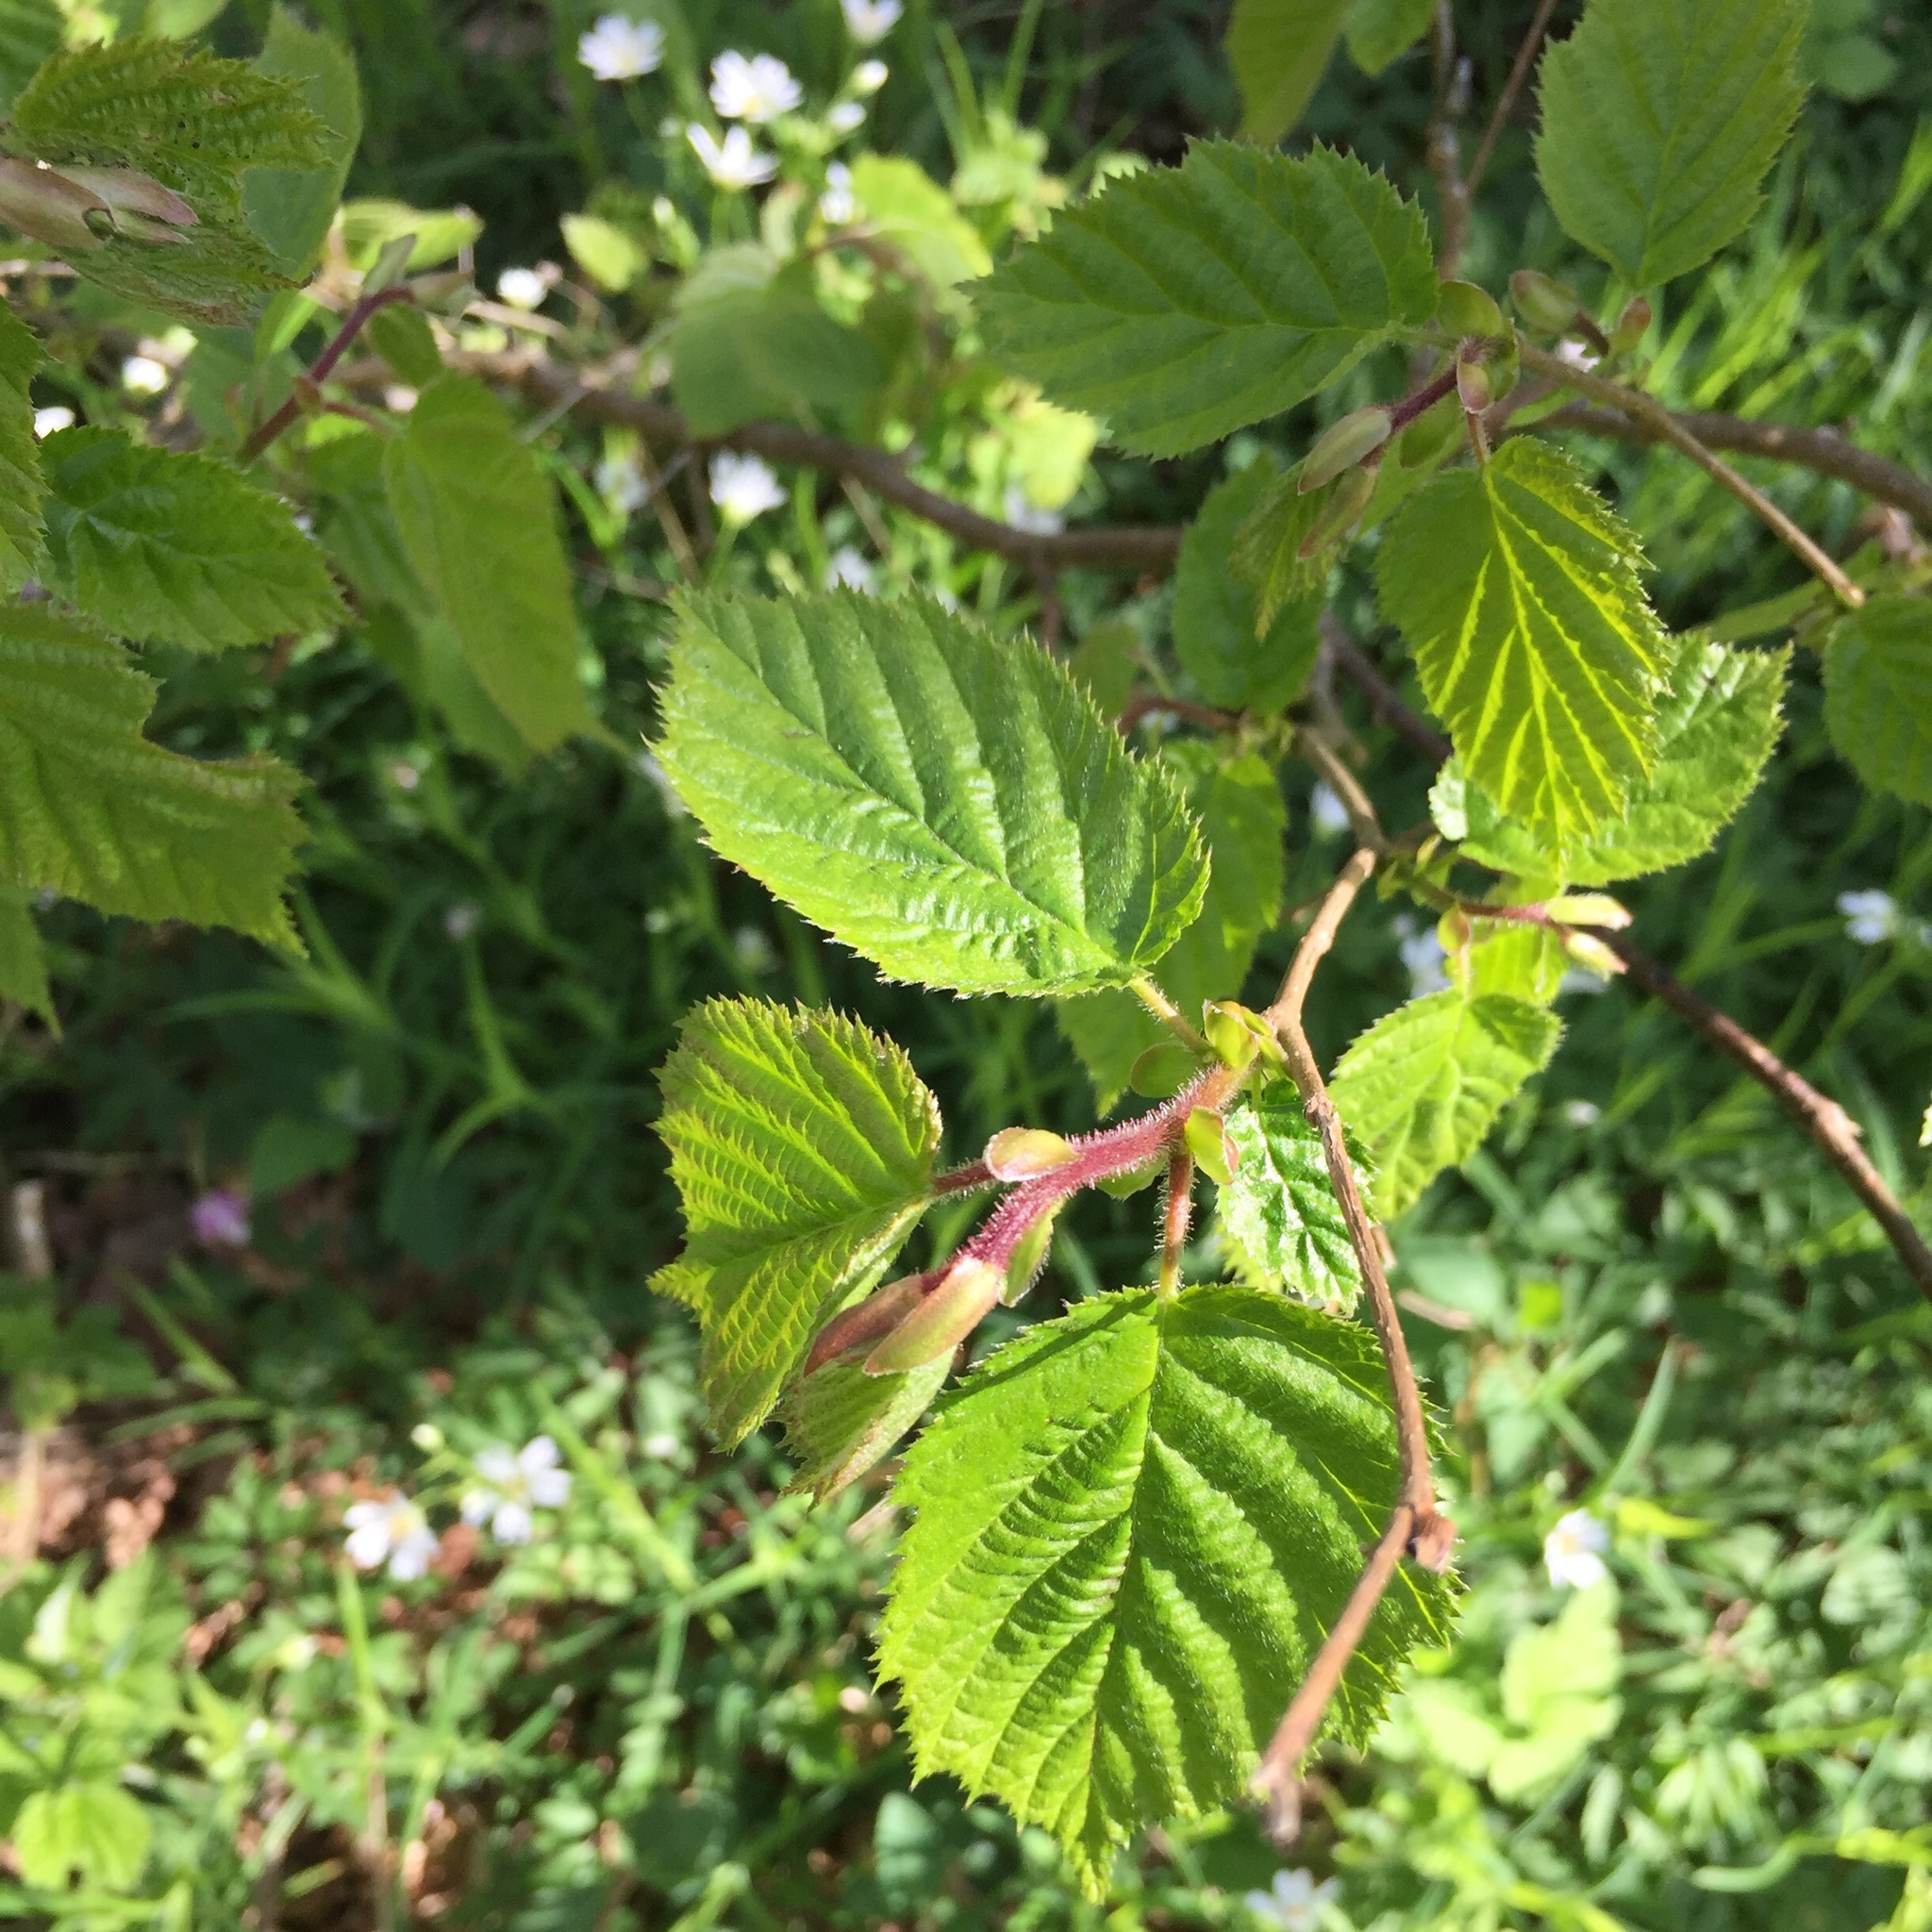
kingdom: Plantae
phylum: Tracheophyta
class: Magnoliopsida
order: Fagales
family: Betulaceae
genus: Corylus
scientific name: Corylus avellana
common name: European hazel
